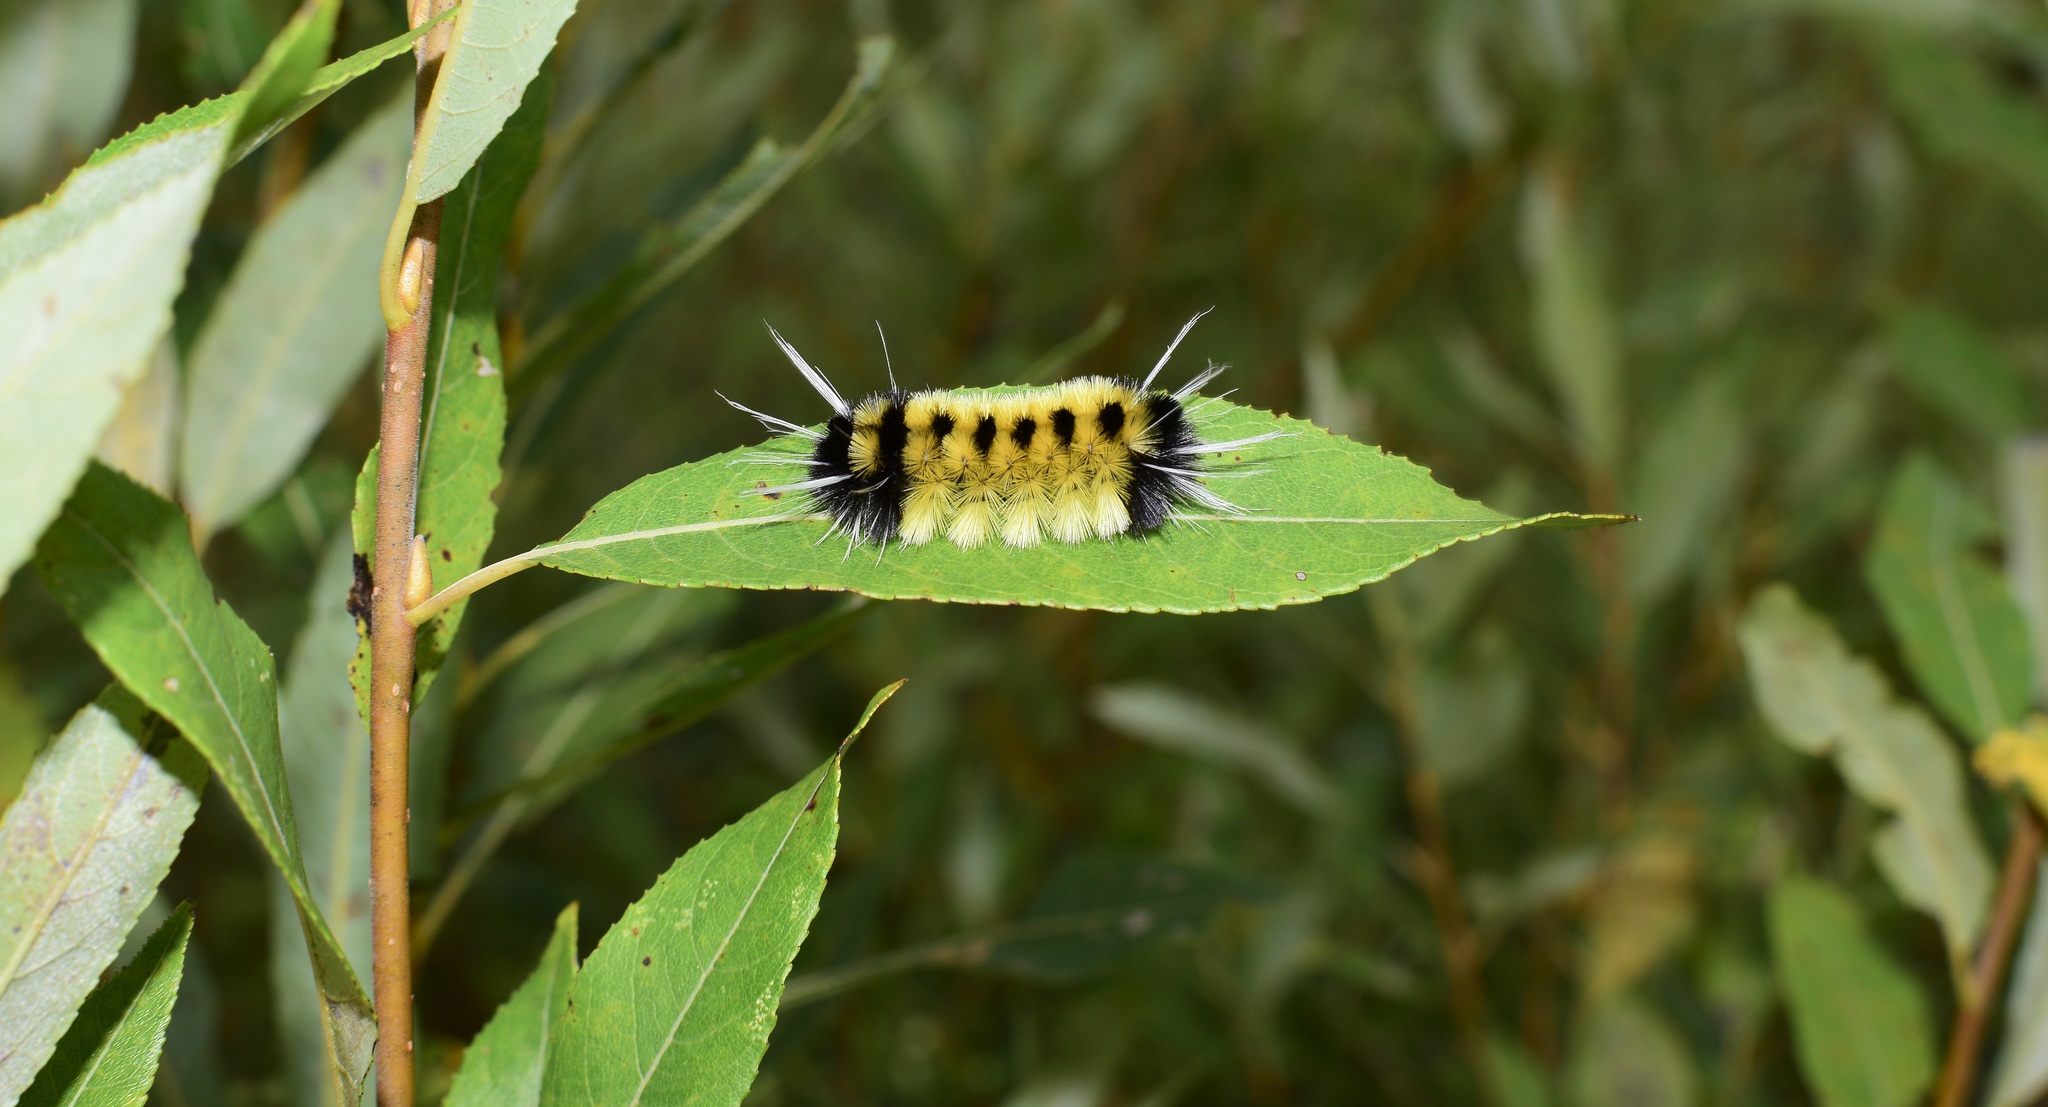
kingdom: Animalia
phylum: Arthropoda
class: Insecta
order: Lepidoptera
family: Erebidae
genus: Lophocampa
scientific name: Lophocampa maculata
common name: Spotted tussock moth
